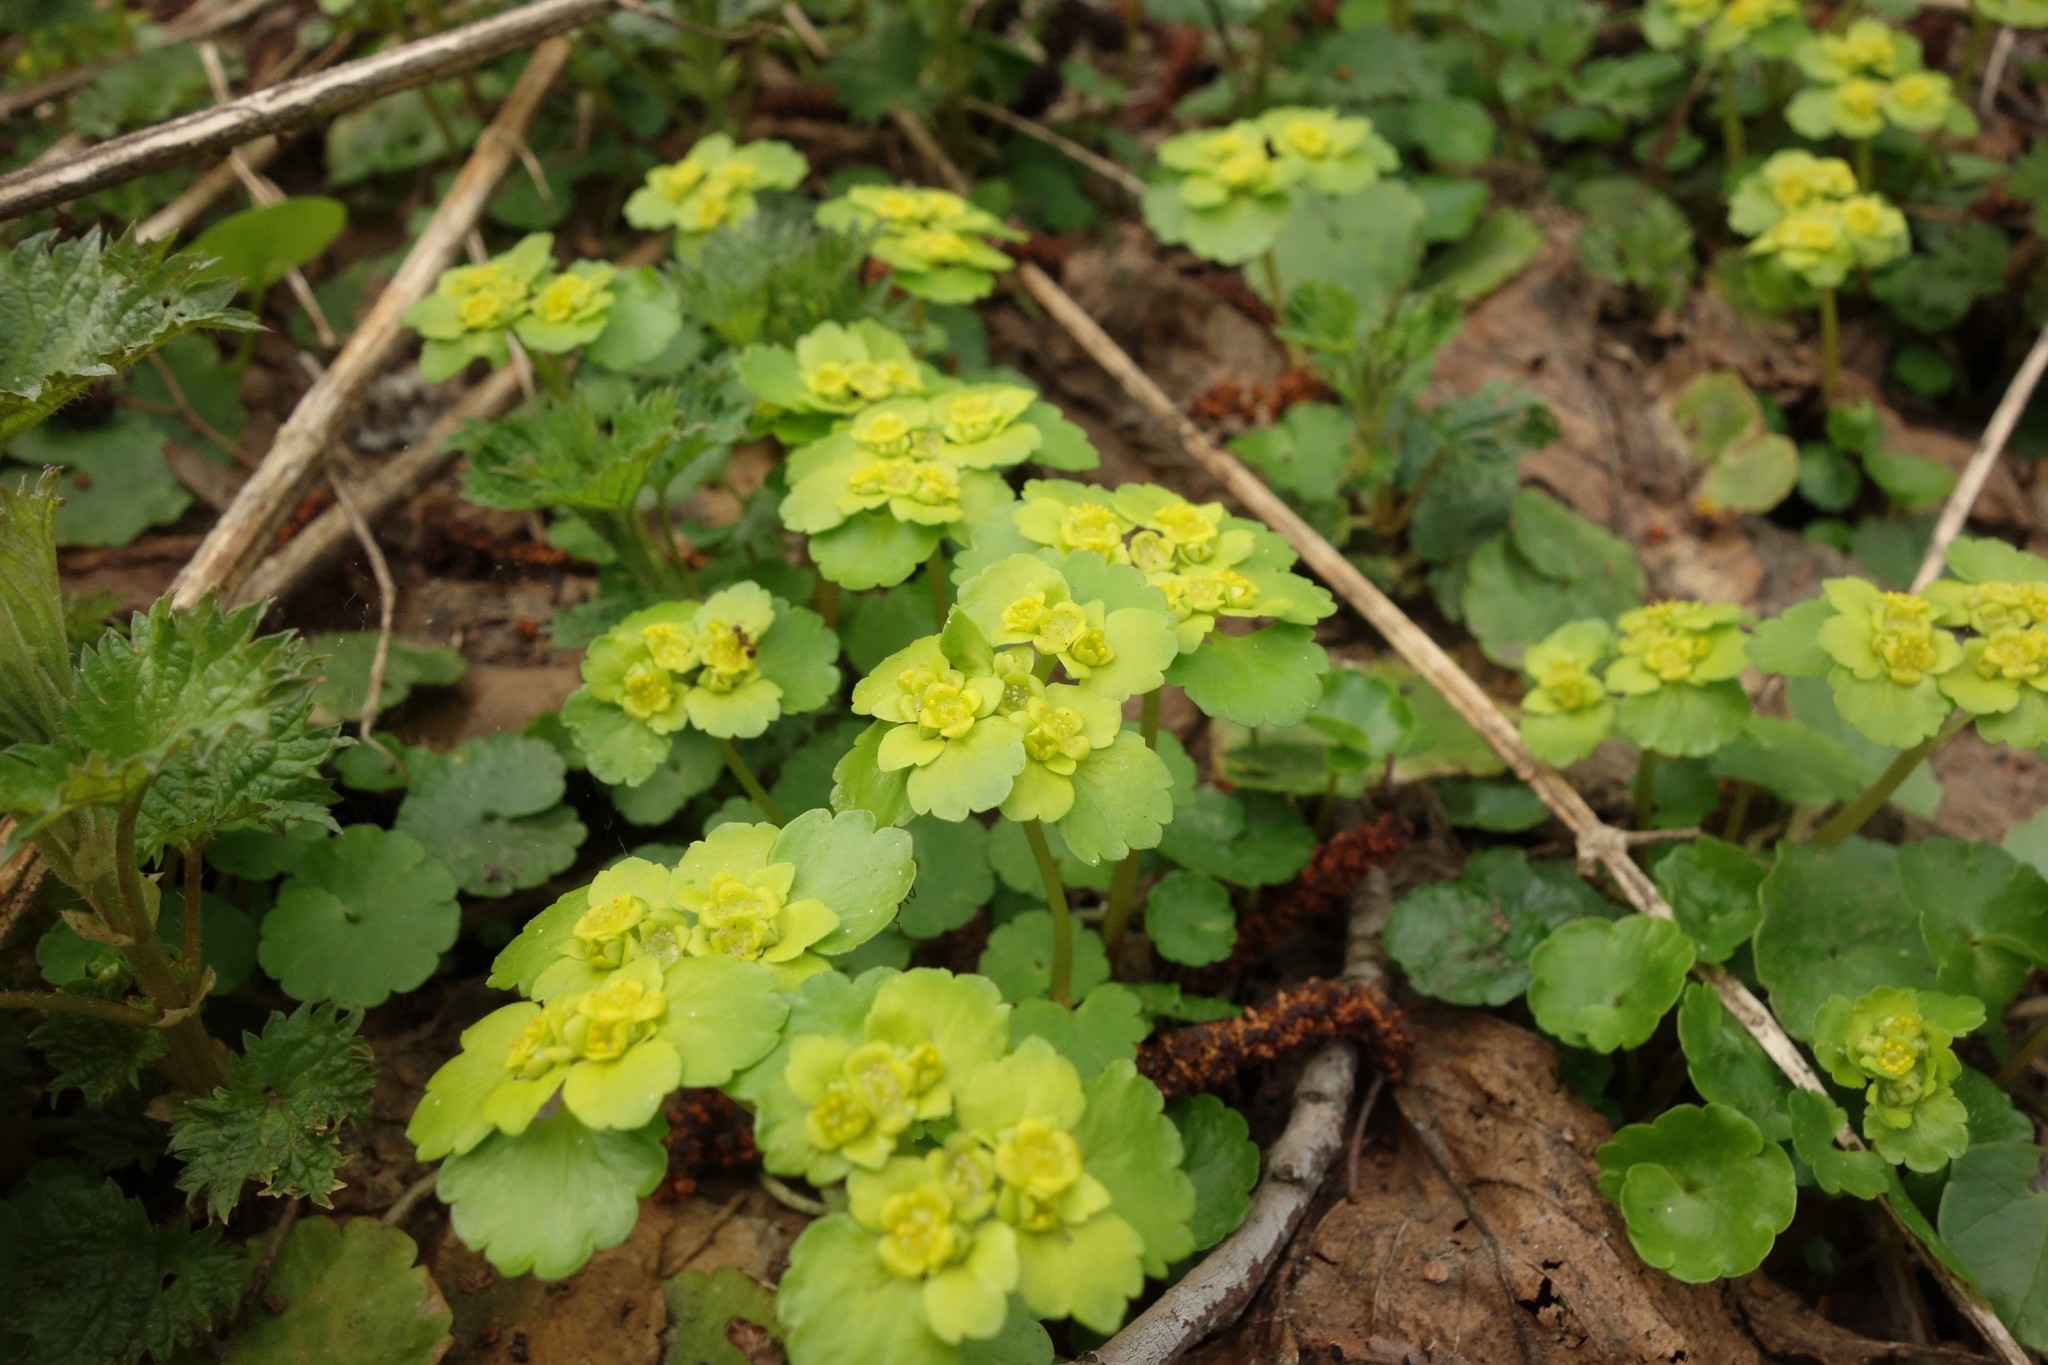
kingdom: Plantae
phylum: Tracheophyta
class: Magnoliopsida
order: Saxifragales
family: Saxifragaceae
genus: Chrysosplenium
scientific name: Chrysosplenium alternifolium
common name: Alternate-leaved golden-saxifrage
